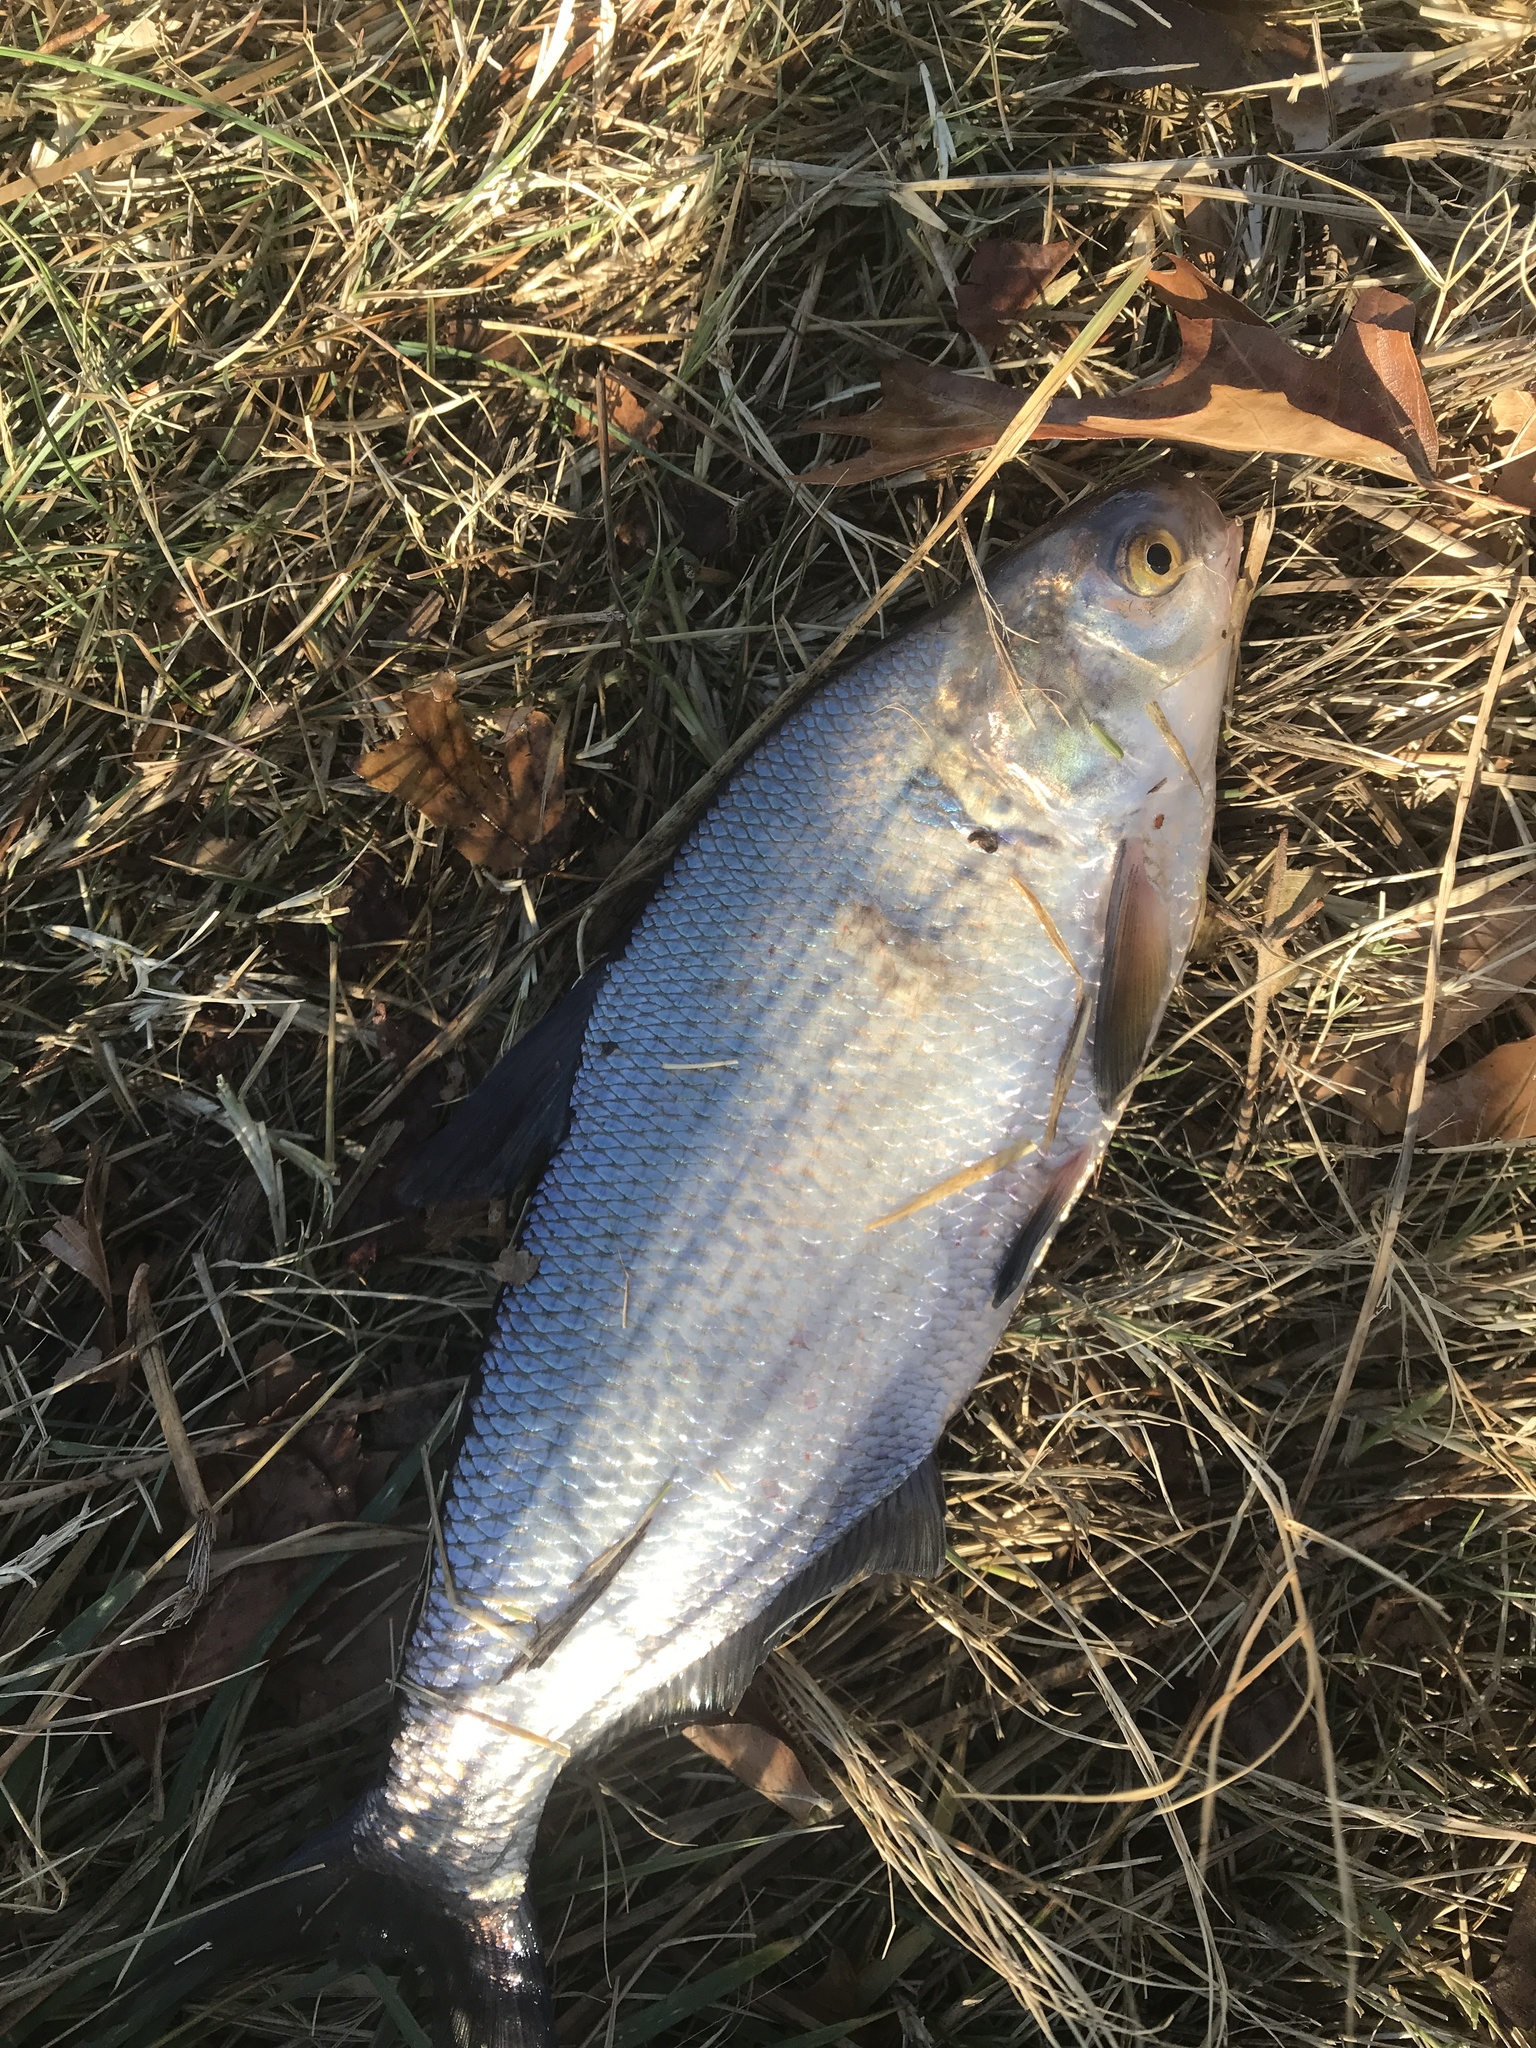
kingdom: Animalia
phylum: Chordata
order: Clupeiformes
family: Clupeidae
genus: Dorosoma
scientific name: Dorosoma cepedianum
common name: Gizzard shad
